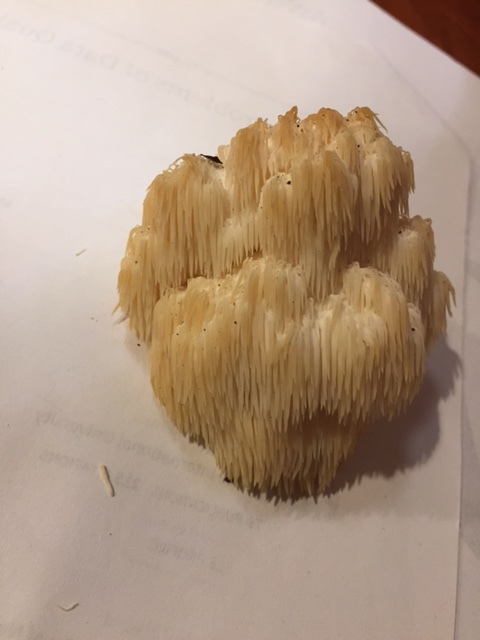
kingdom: Fungi
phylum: Basidiomycota
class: Agaricomycetes
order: Russulales
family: Hericiaceae
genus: Hericium
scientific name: Hericium americanum
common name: Bear's head tooth
